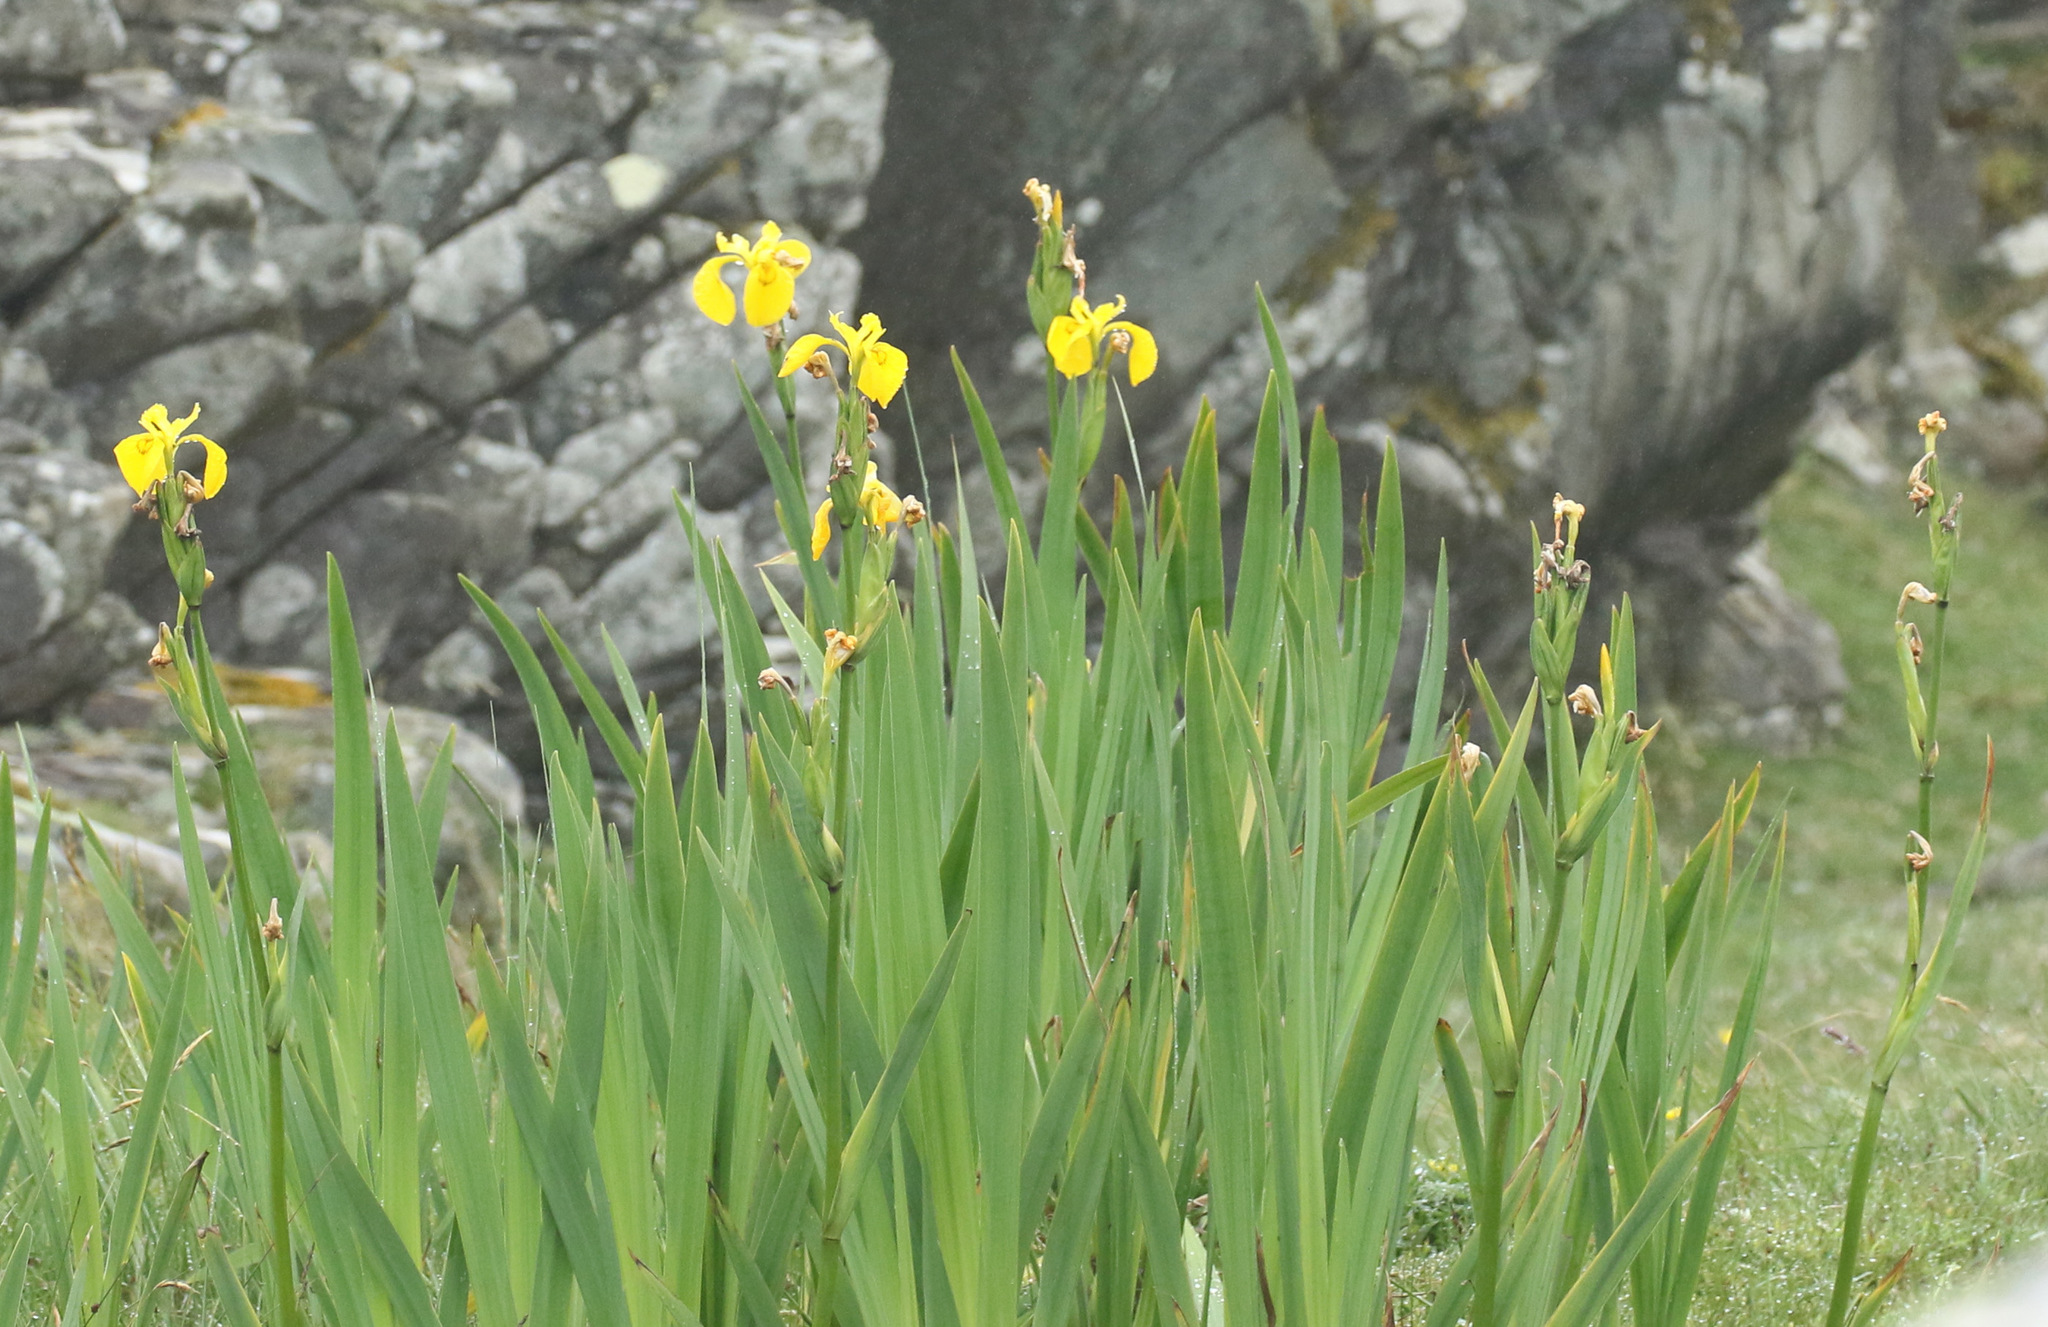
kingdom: Plantae
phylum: Tracheophyta
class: Liliopsida
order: Asparagales
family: Iridaceae
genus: Iris
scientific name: Iris pseudacorus
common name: Yellow flag
